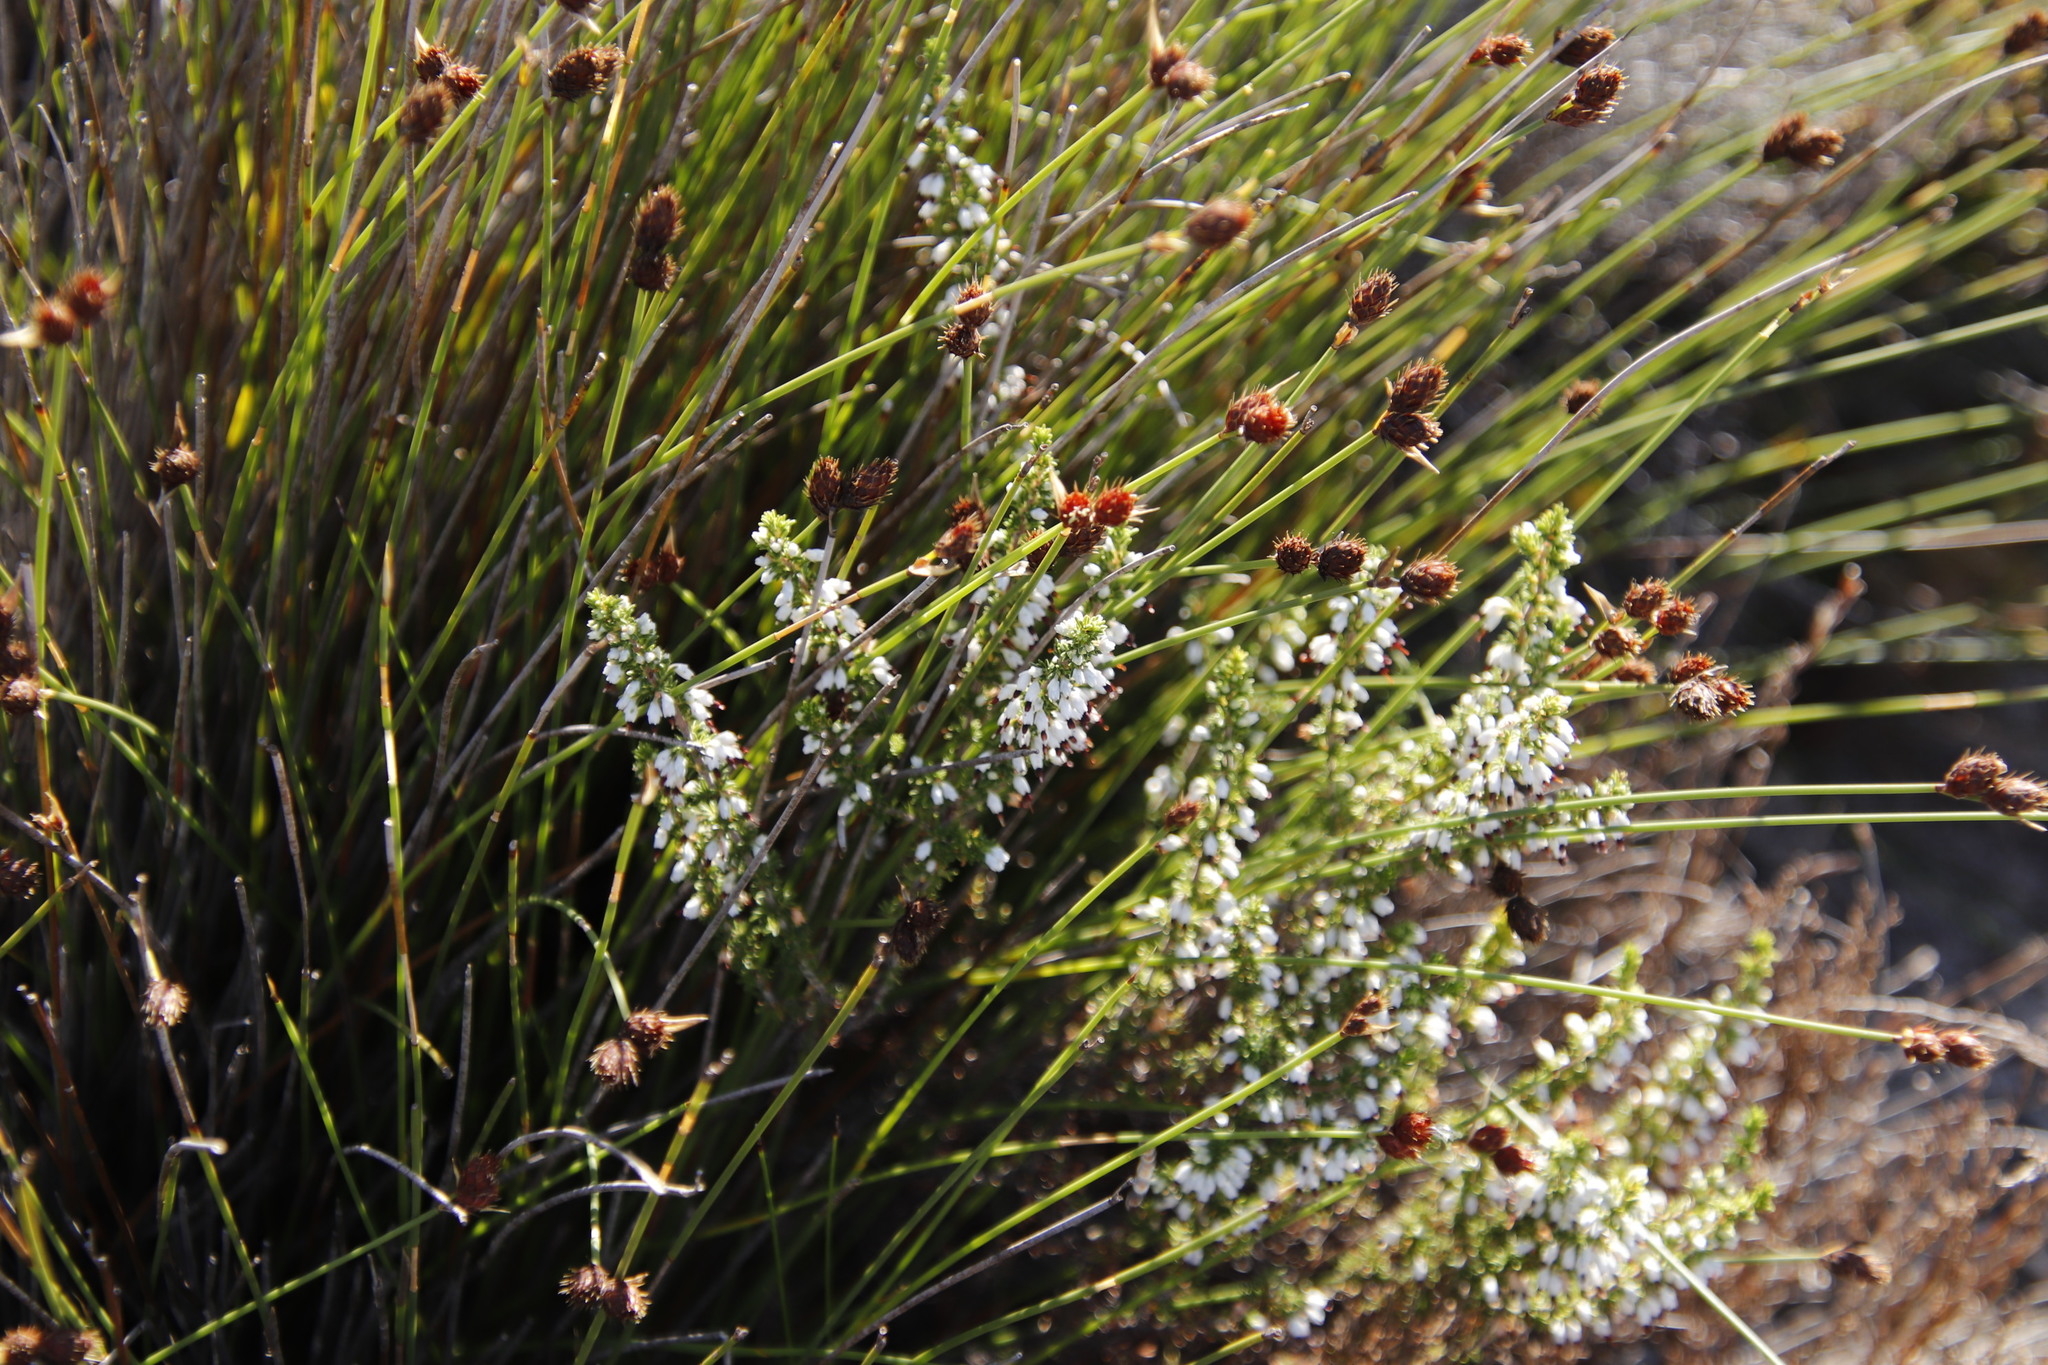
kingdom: Plantae
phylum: Tracheophyta
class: Magnoliopsida
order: Ericales
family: Ericaceae
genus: Erica
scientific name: Erica imbricata
